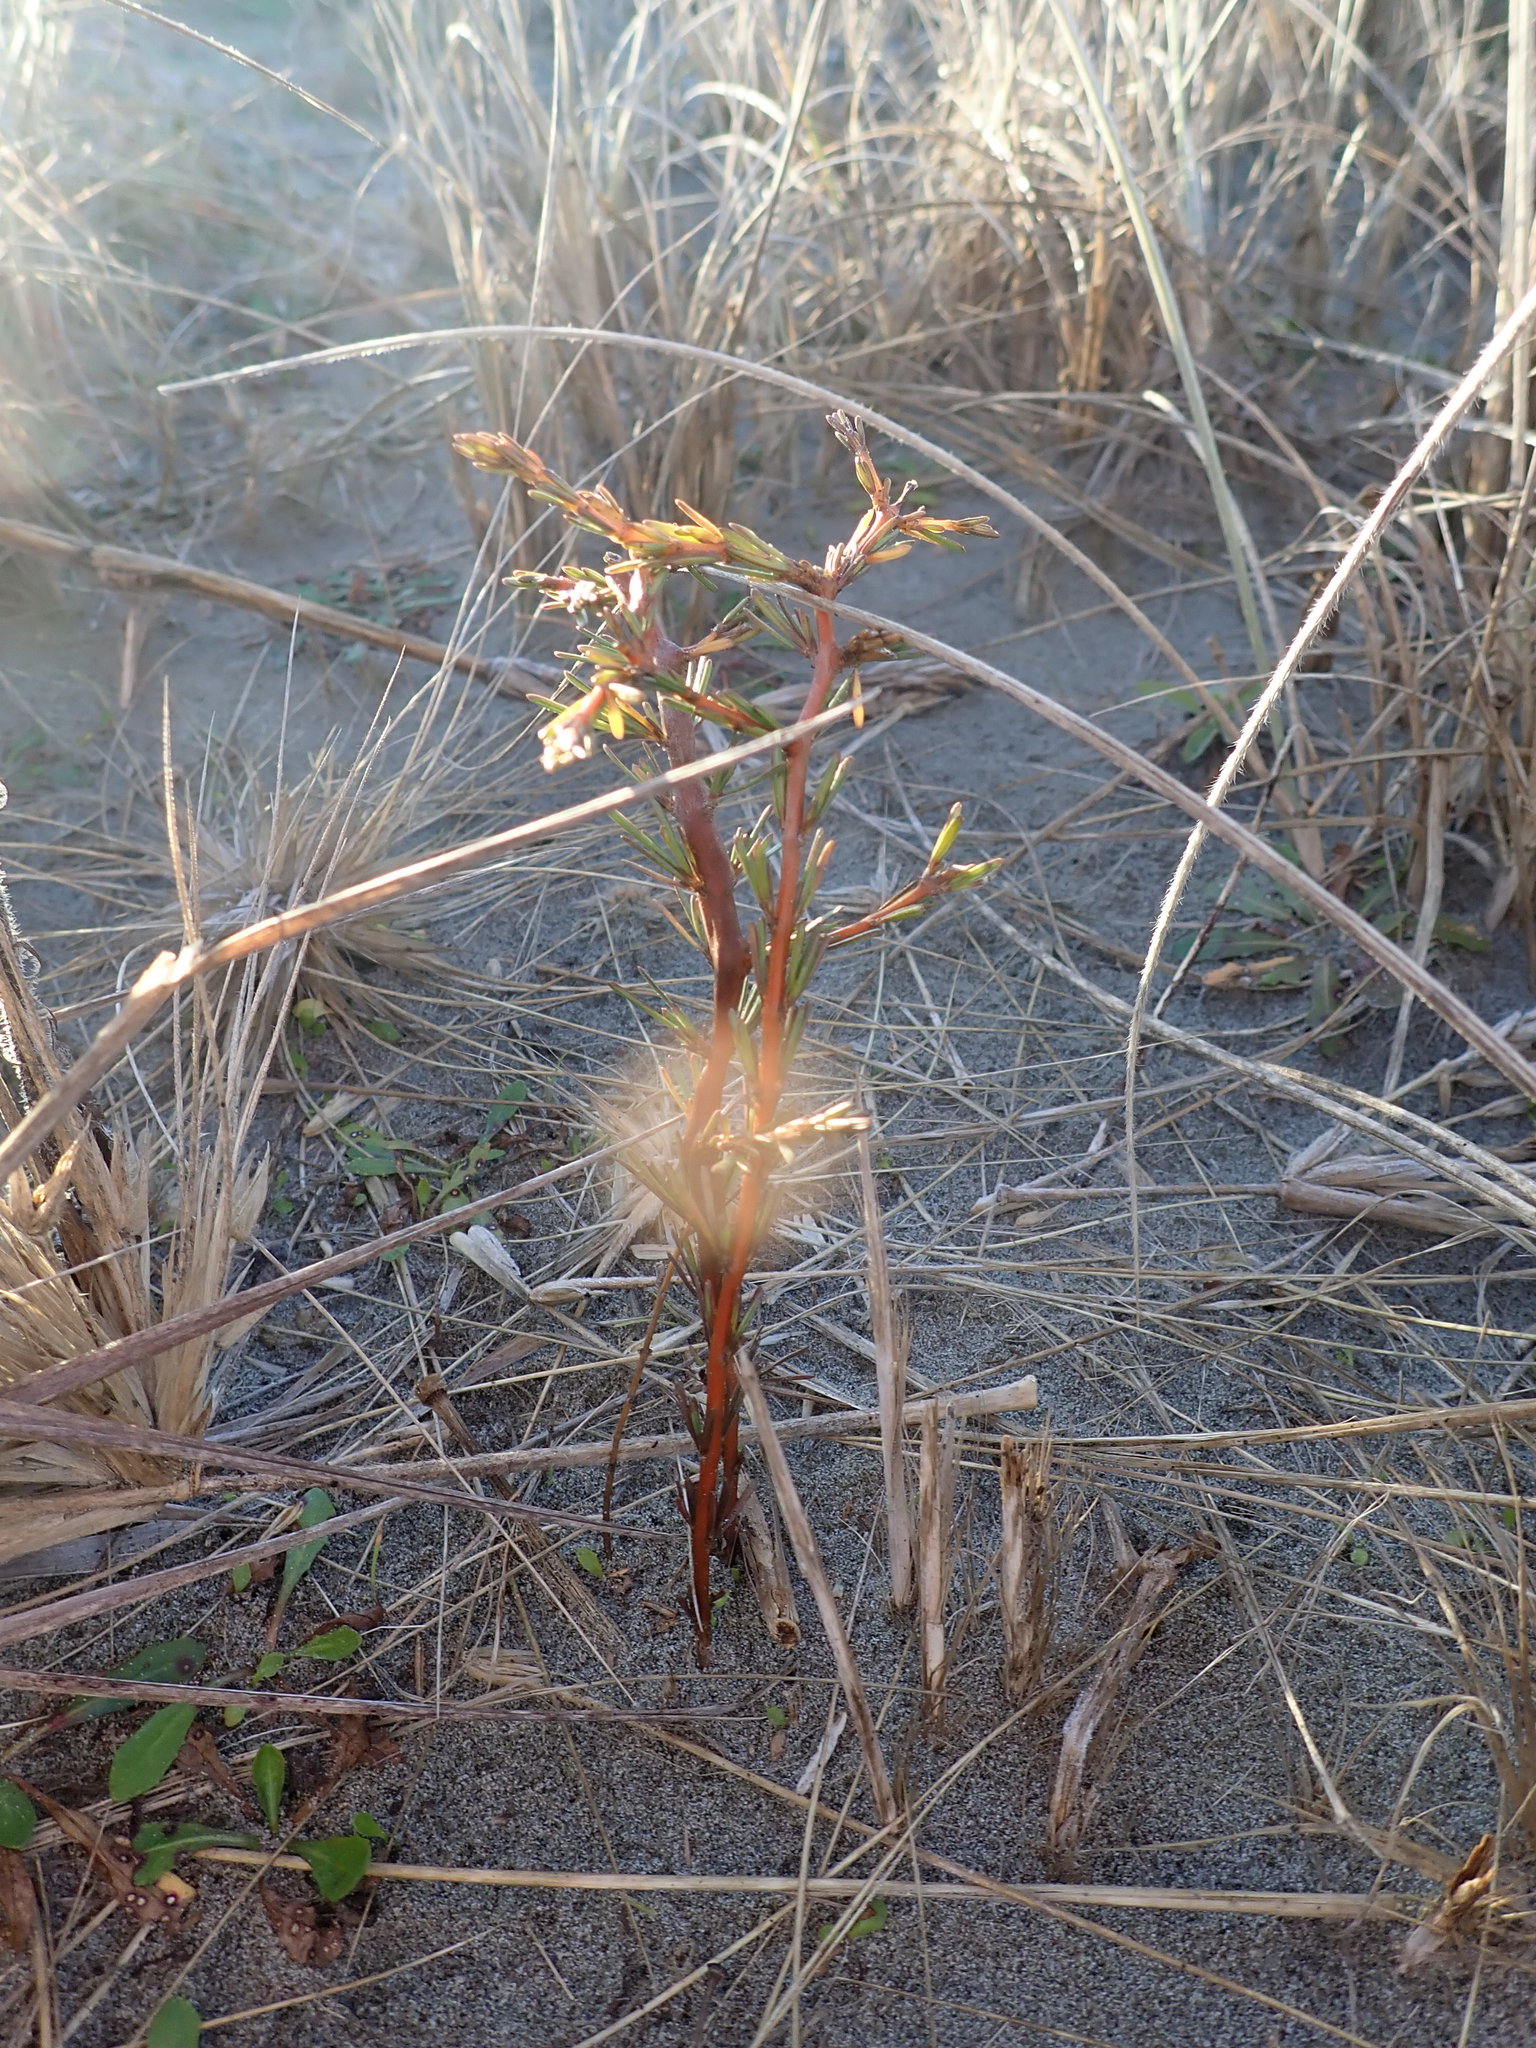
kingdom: Plantae
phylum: Tracheophyta
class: Magnoliopsida
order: Gentianales
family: Rubiaceae
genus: Coprosma
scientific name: Coprosma acerosa
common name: Sand coprosma
